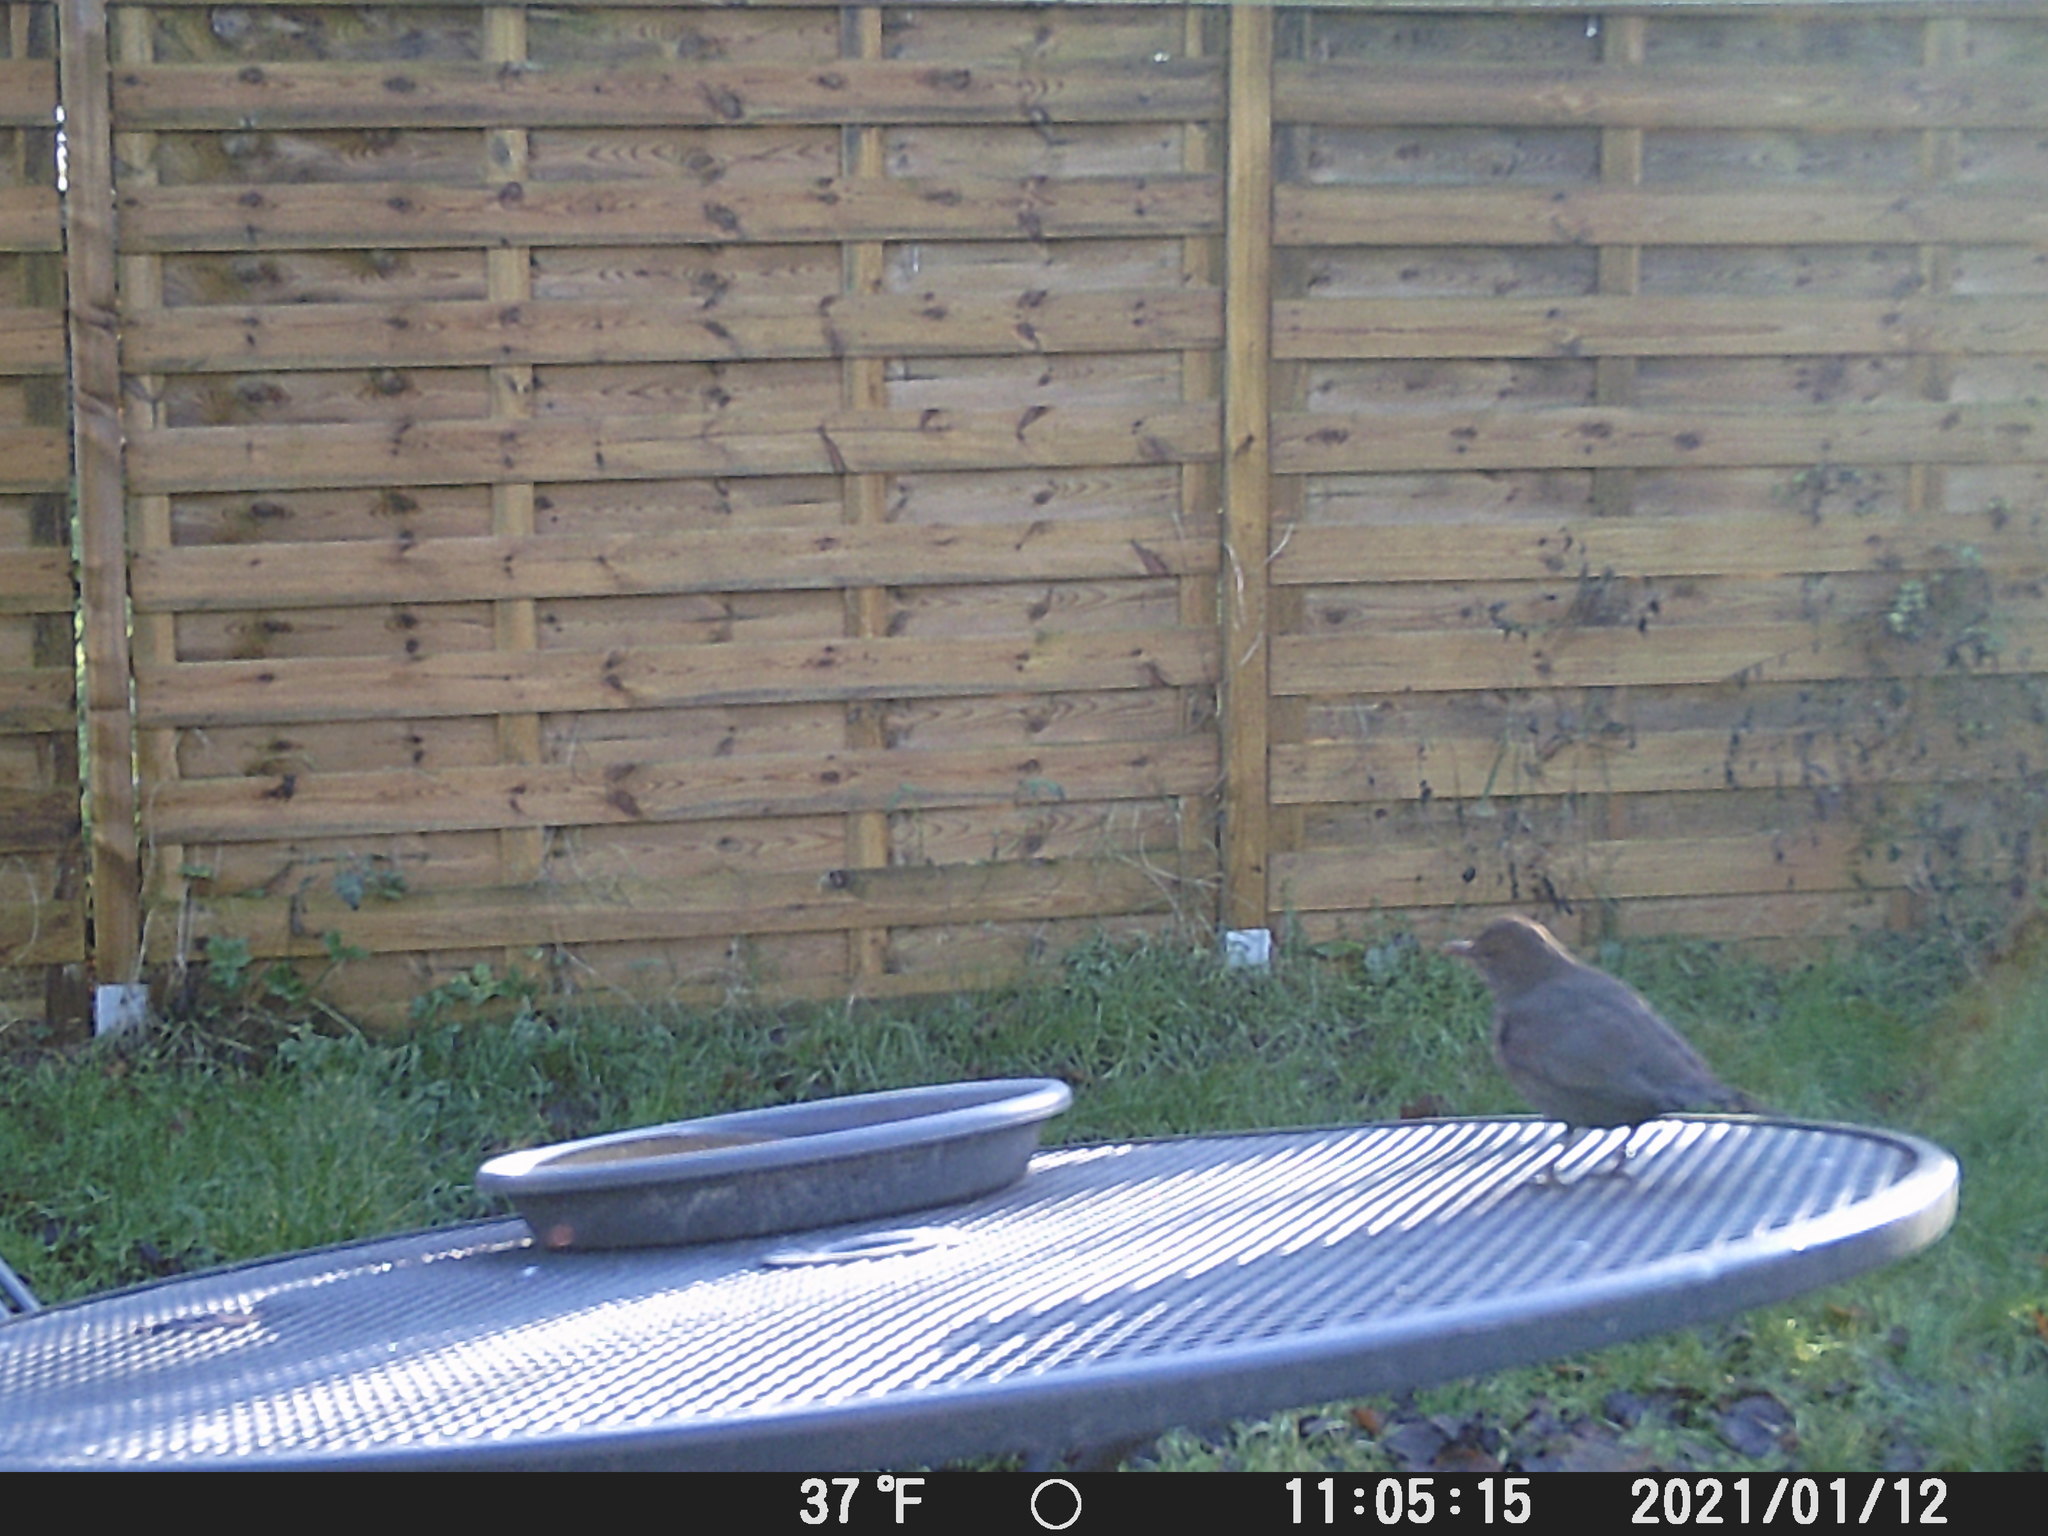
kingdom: Animalia
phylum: Chordata
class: Aves
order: Passeriformes
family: Turdidae
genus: Turdus
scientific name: Turdus merula
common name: Common blackbird
